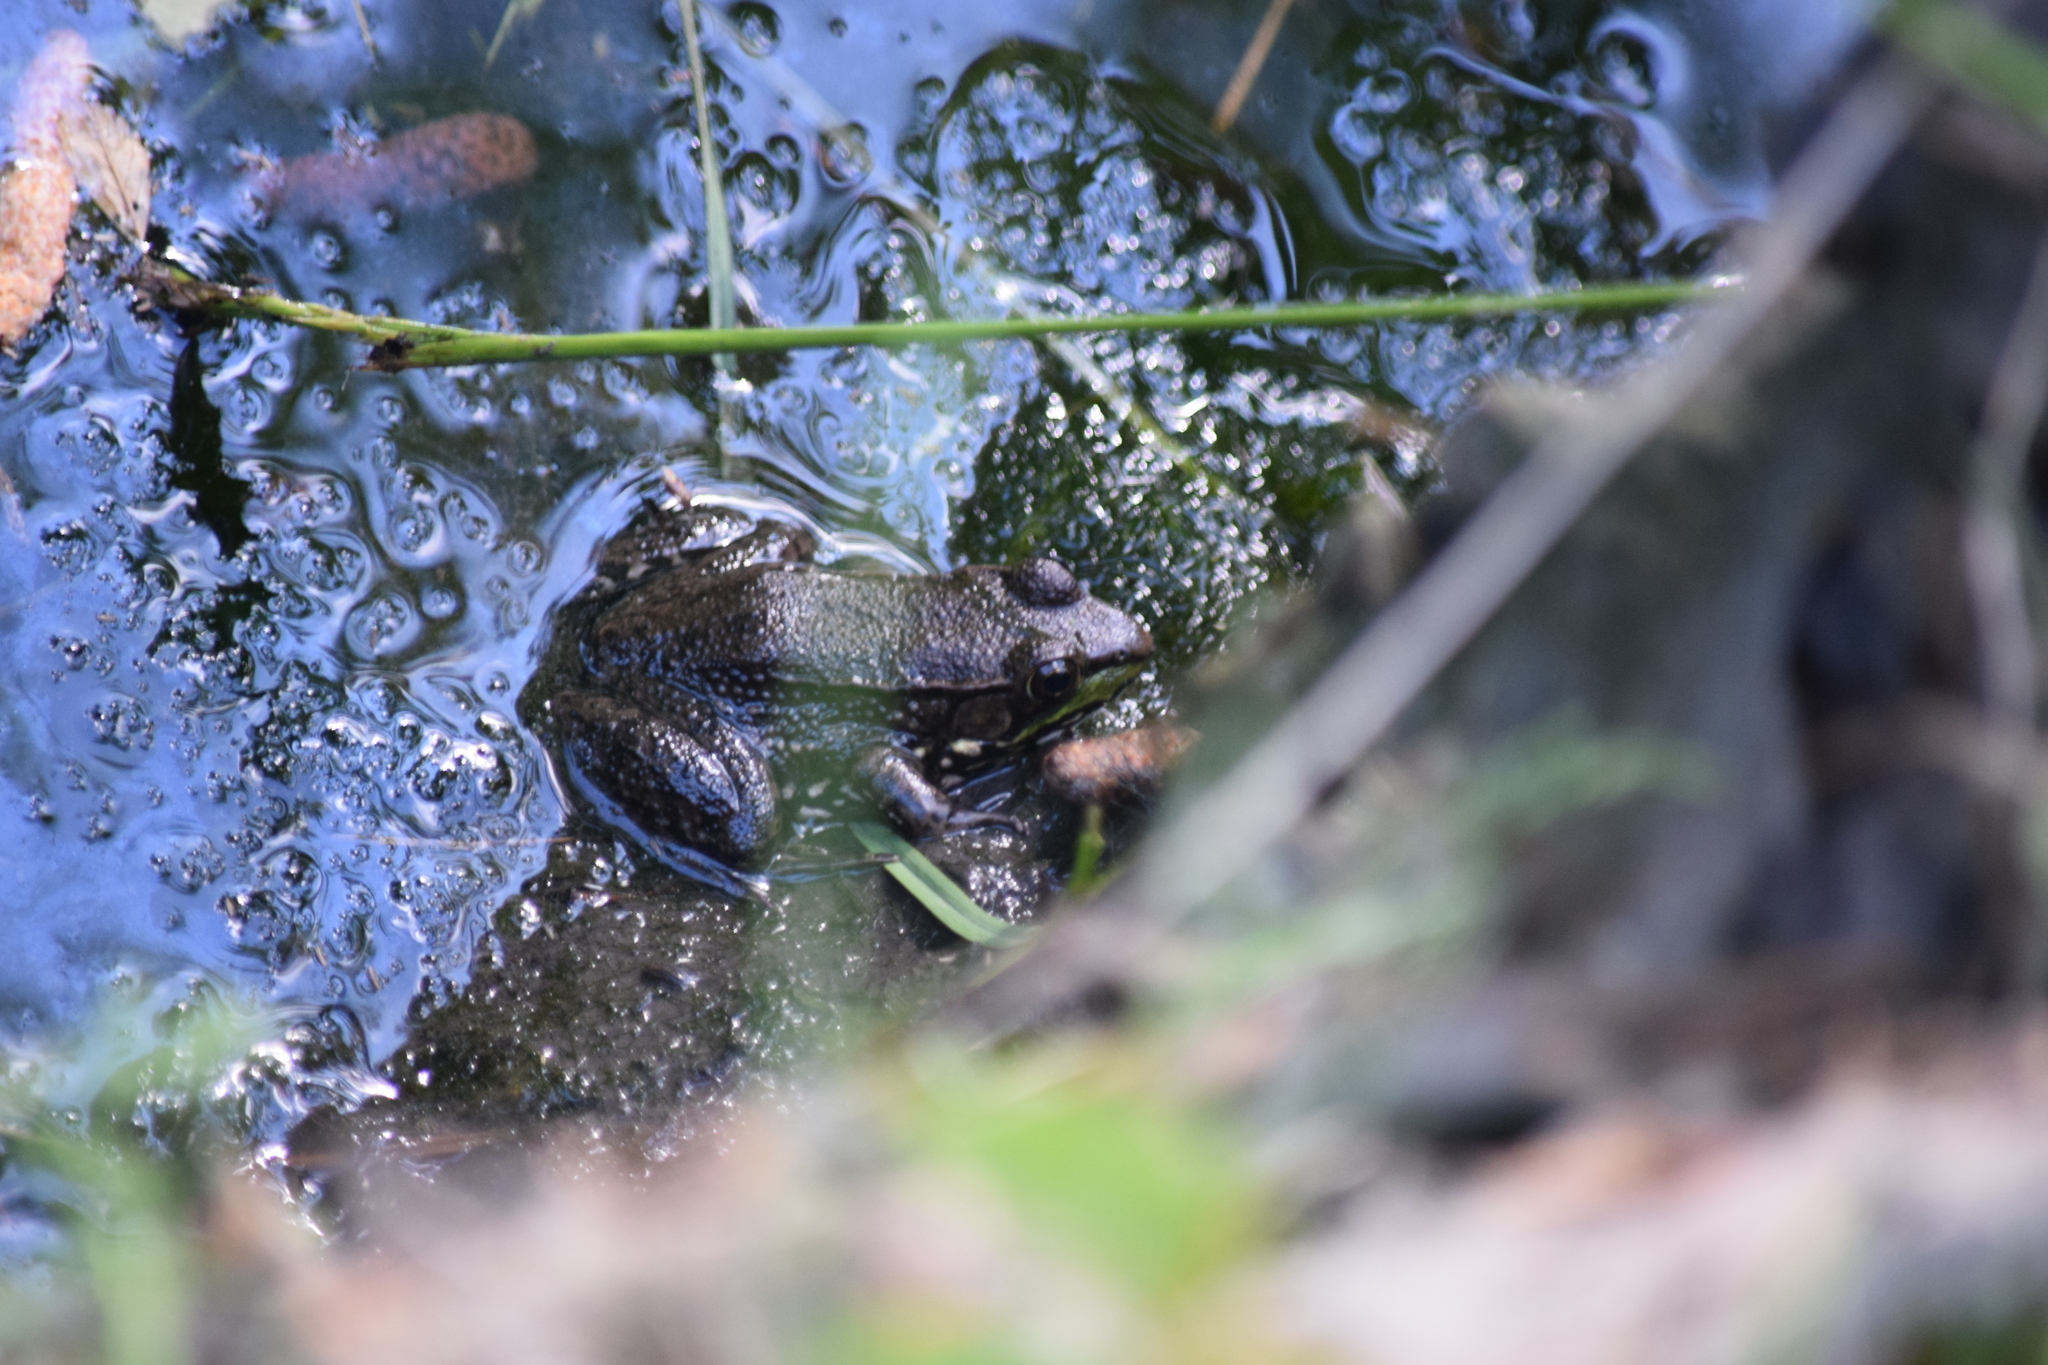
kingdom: Animalia
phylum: Chordata
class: Amphibia
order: Anura
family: Ranidae
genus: Lithobates
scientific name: Lithobates clamitans
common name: Green frog
